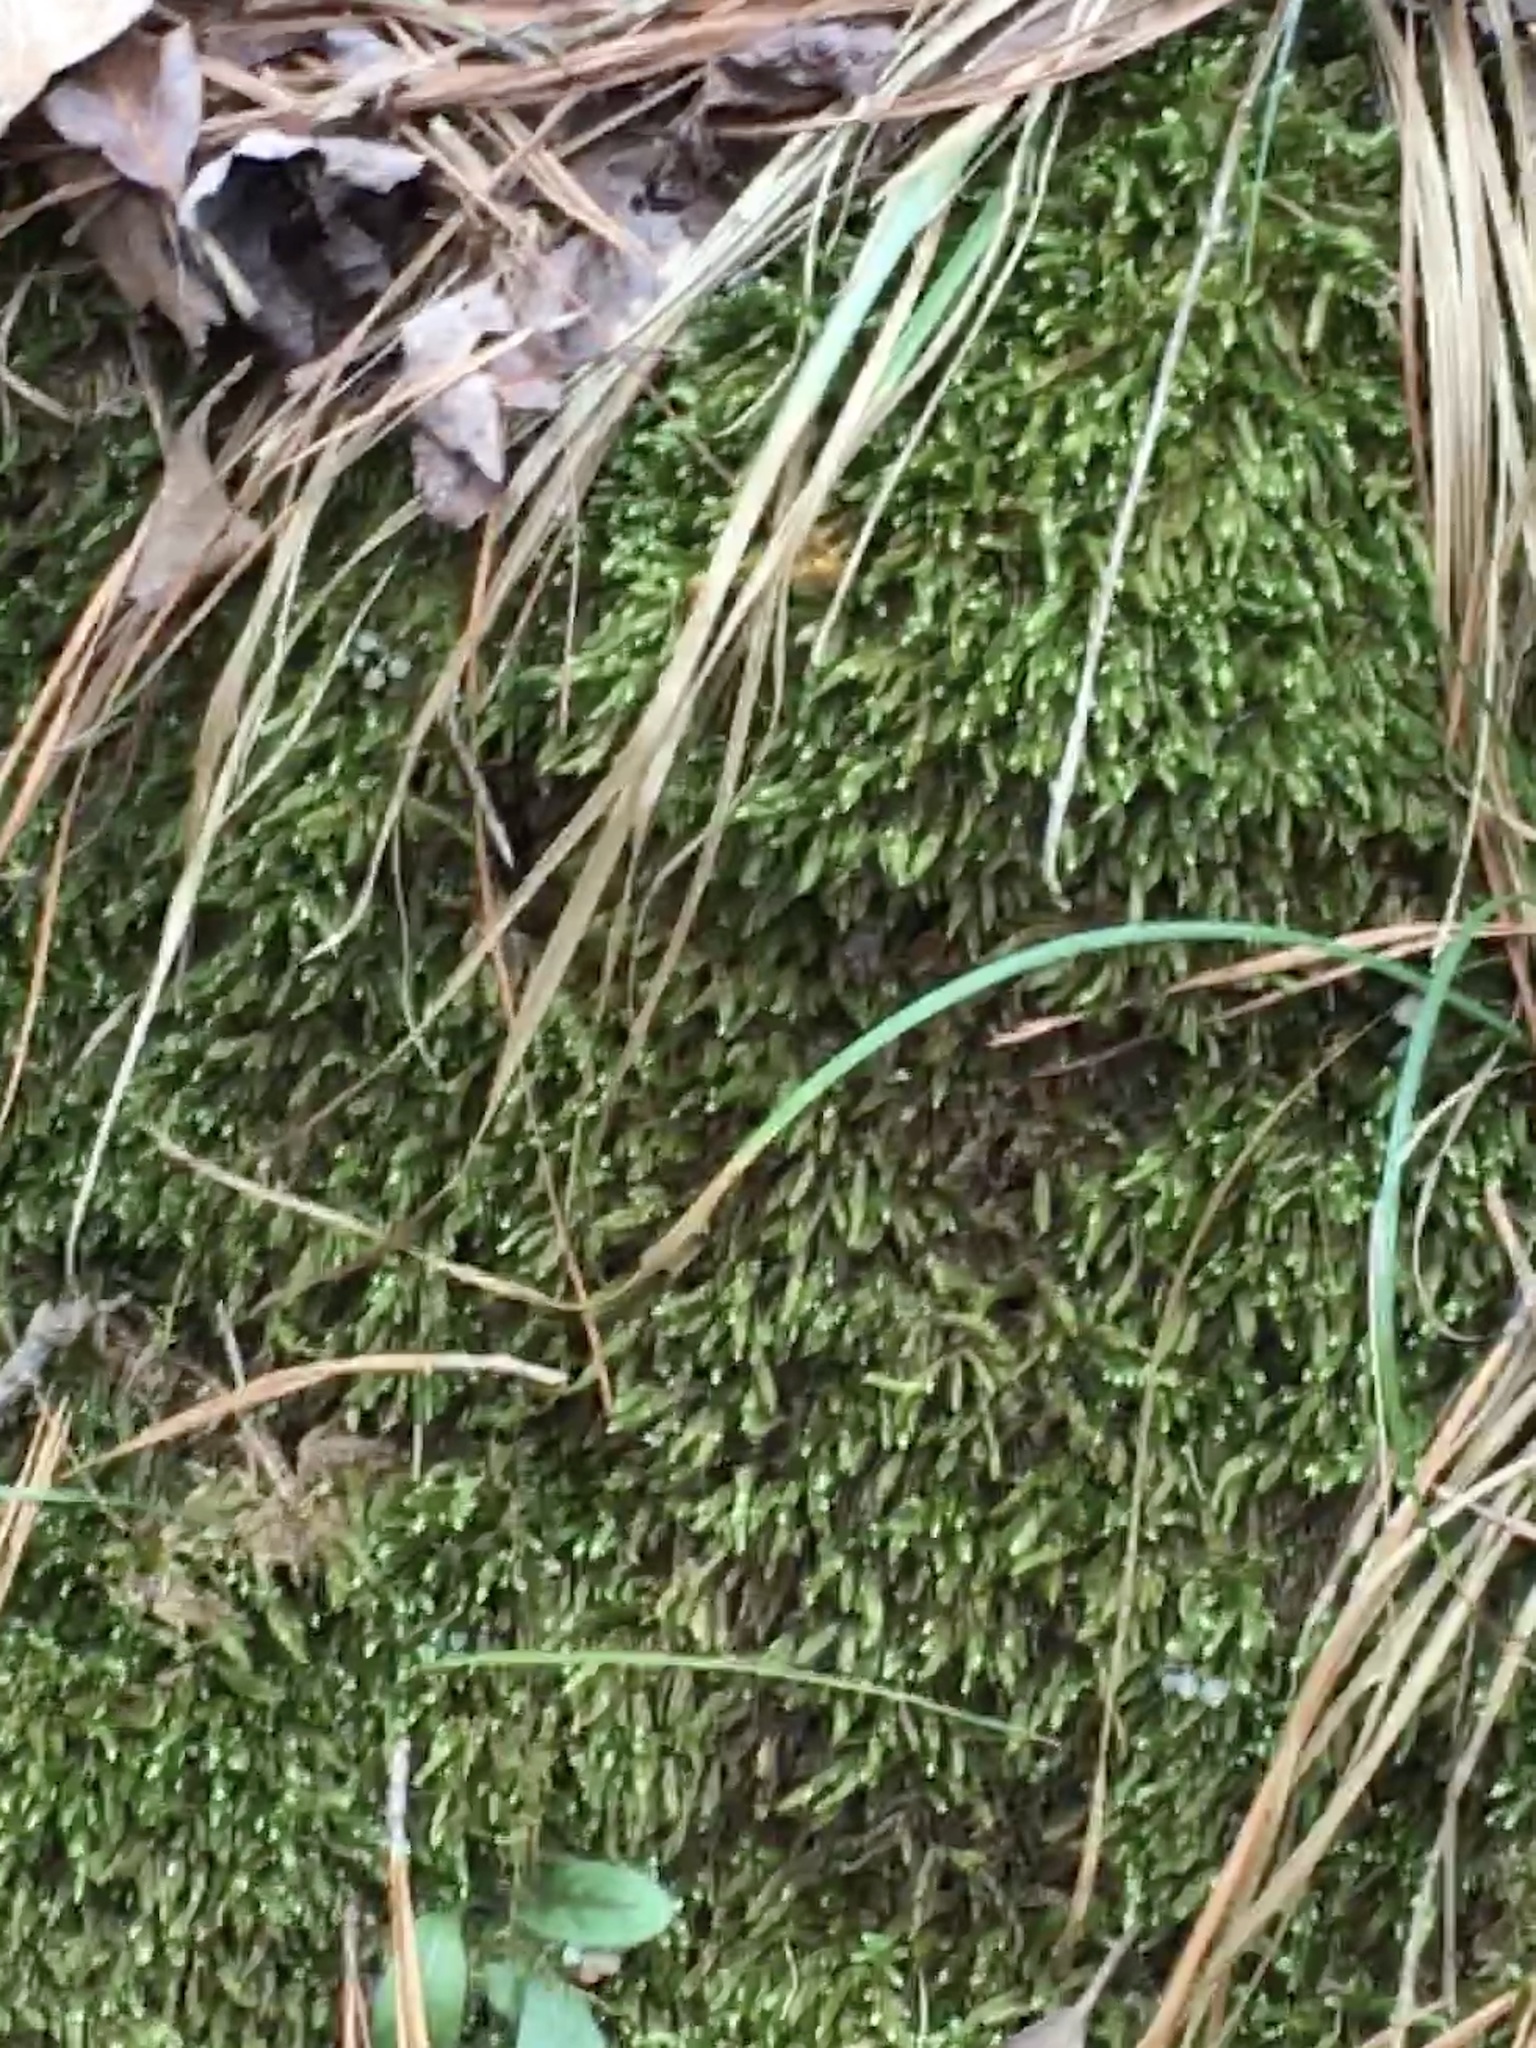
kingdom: Plantae
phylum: Bryophyta
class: Bryopsida
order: Hypnales
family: Brachytheciaceae
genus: Bryoandersonia
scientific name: Bryoandersonia illecebra
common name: Spoon-leaved moss
